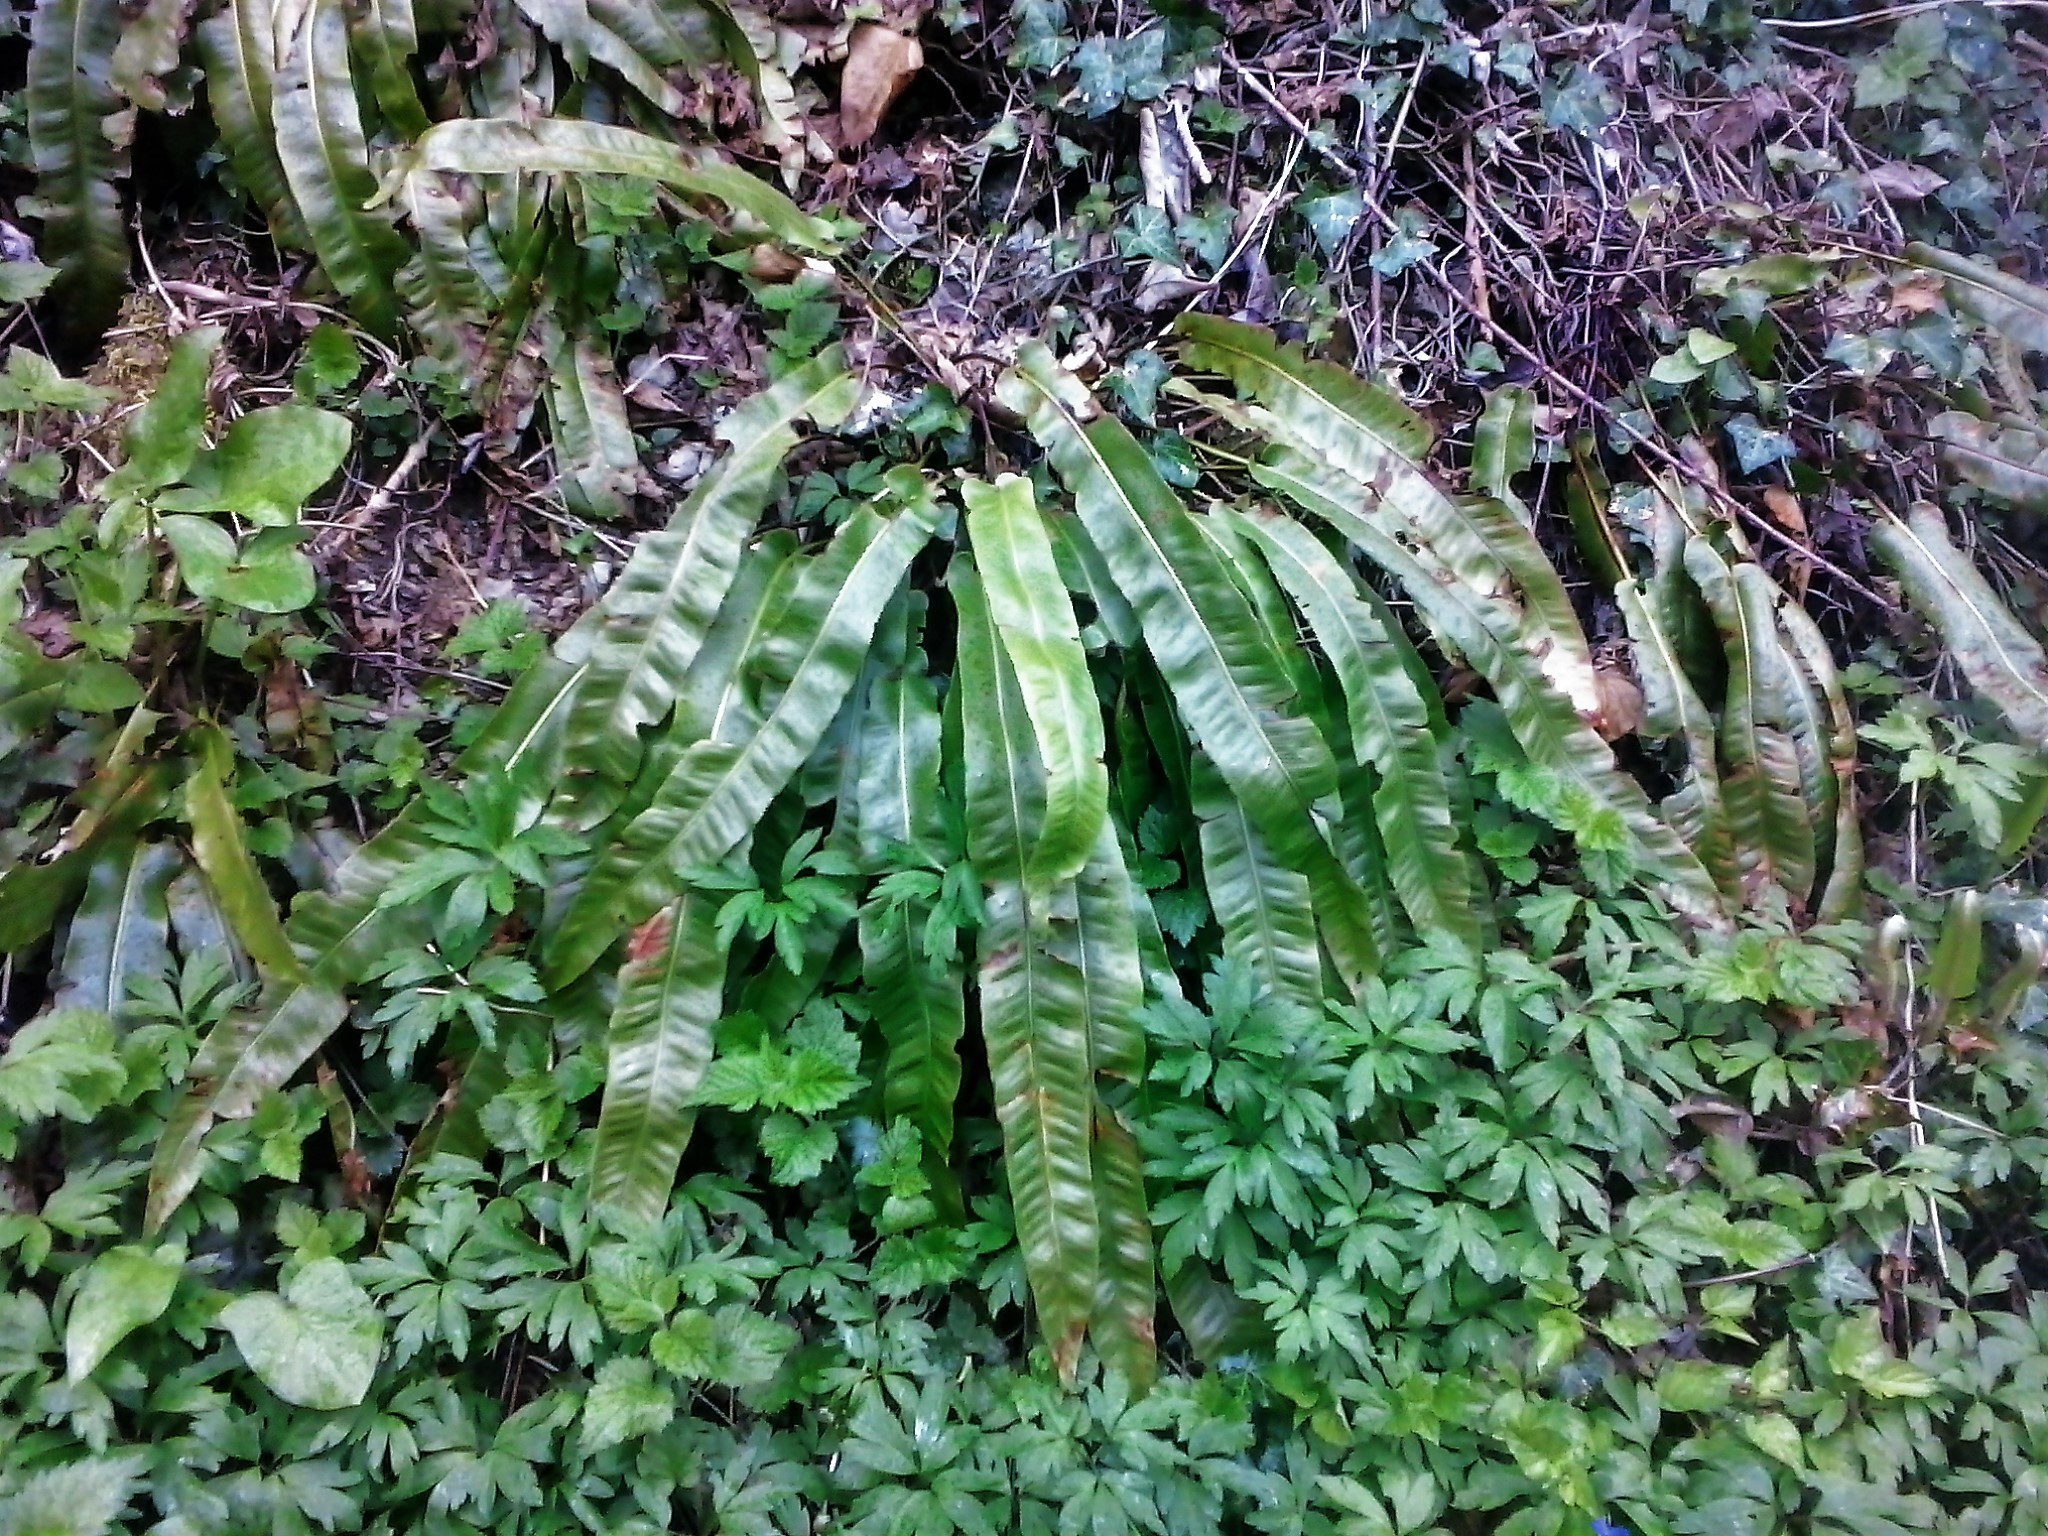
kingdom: Plantae
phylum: Tracheophyta
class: Polypodiopsida
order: Polypodiales
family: Aspleniaceae
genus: Asplenium
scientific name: Asplenium scolopendrium
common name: Hart's-tongue fern
